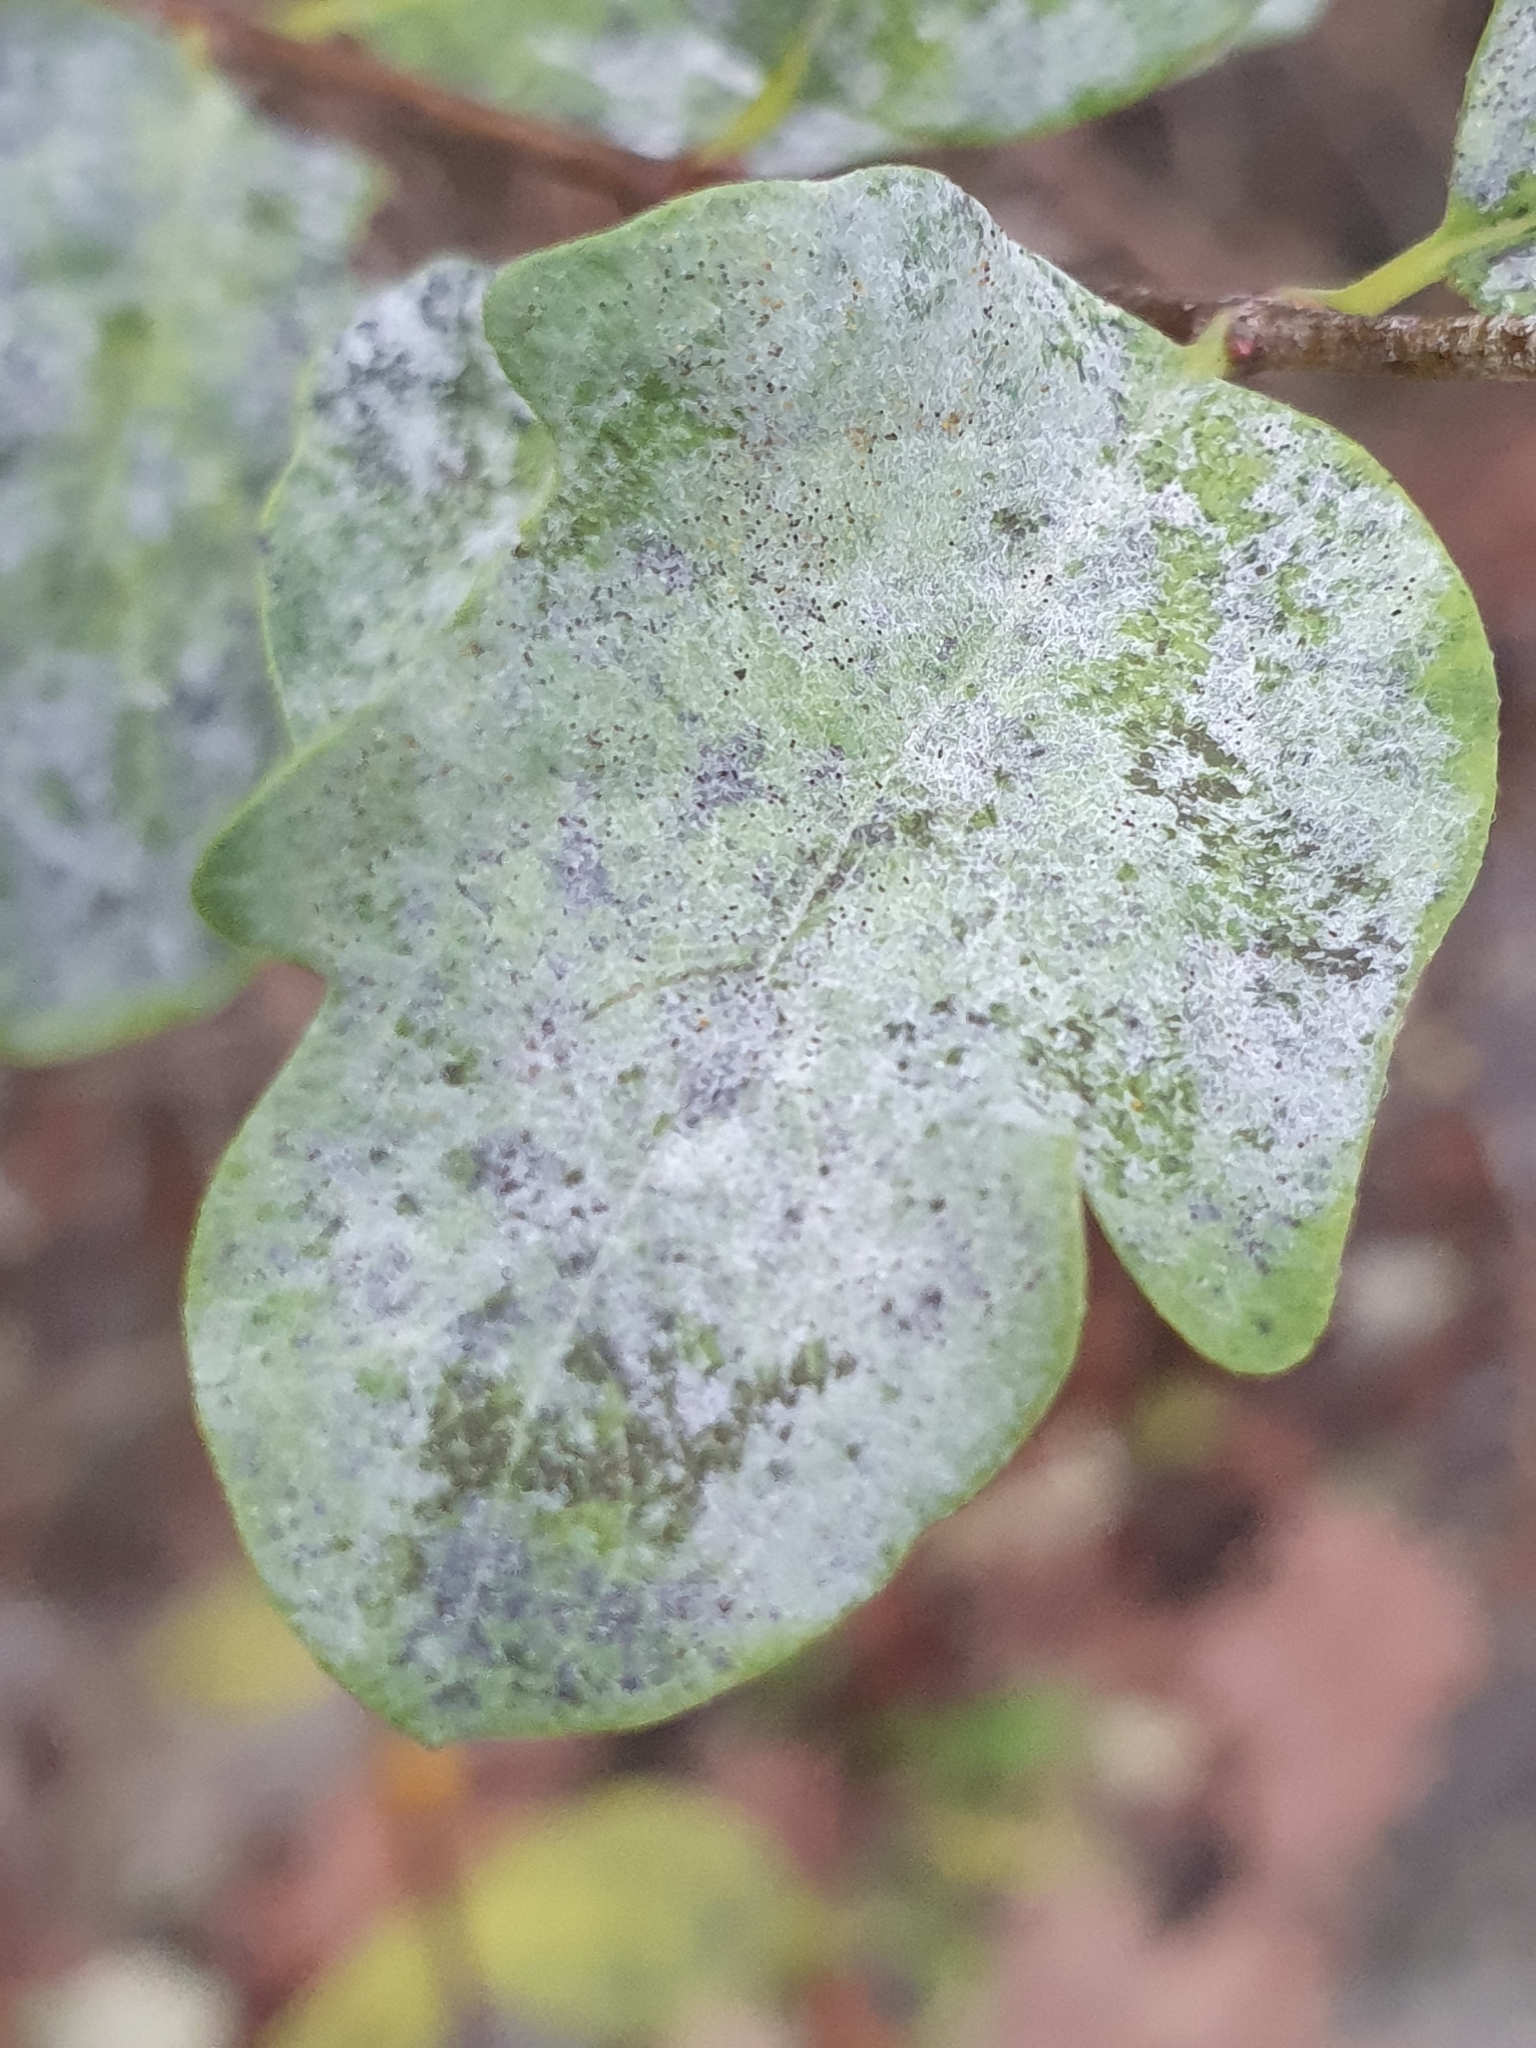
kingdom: Fungi
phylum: Ascomycota
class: Leotiomycetes
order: Helotiales
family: Erysiphaceae
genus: Erysiphe
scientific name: Erysiphe symphoricarpi
